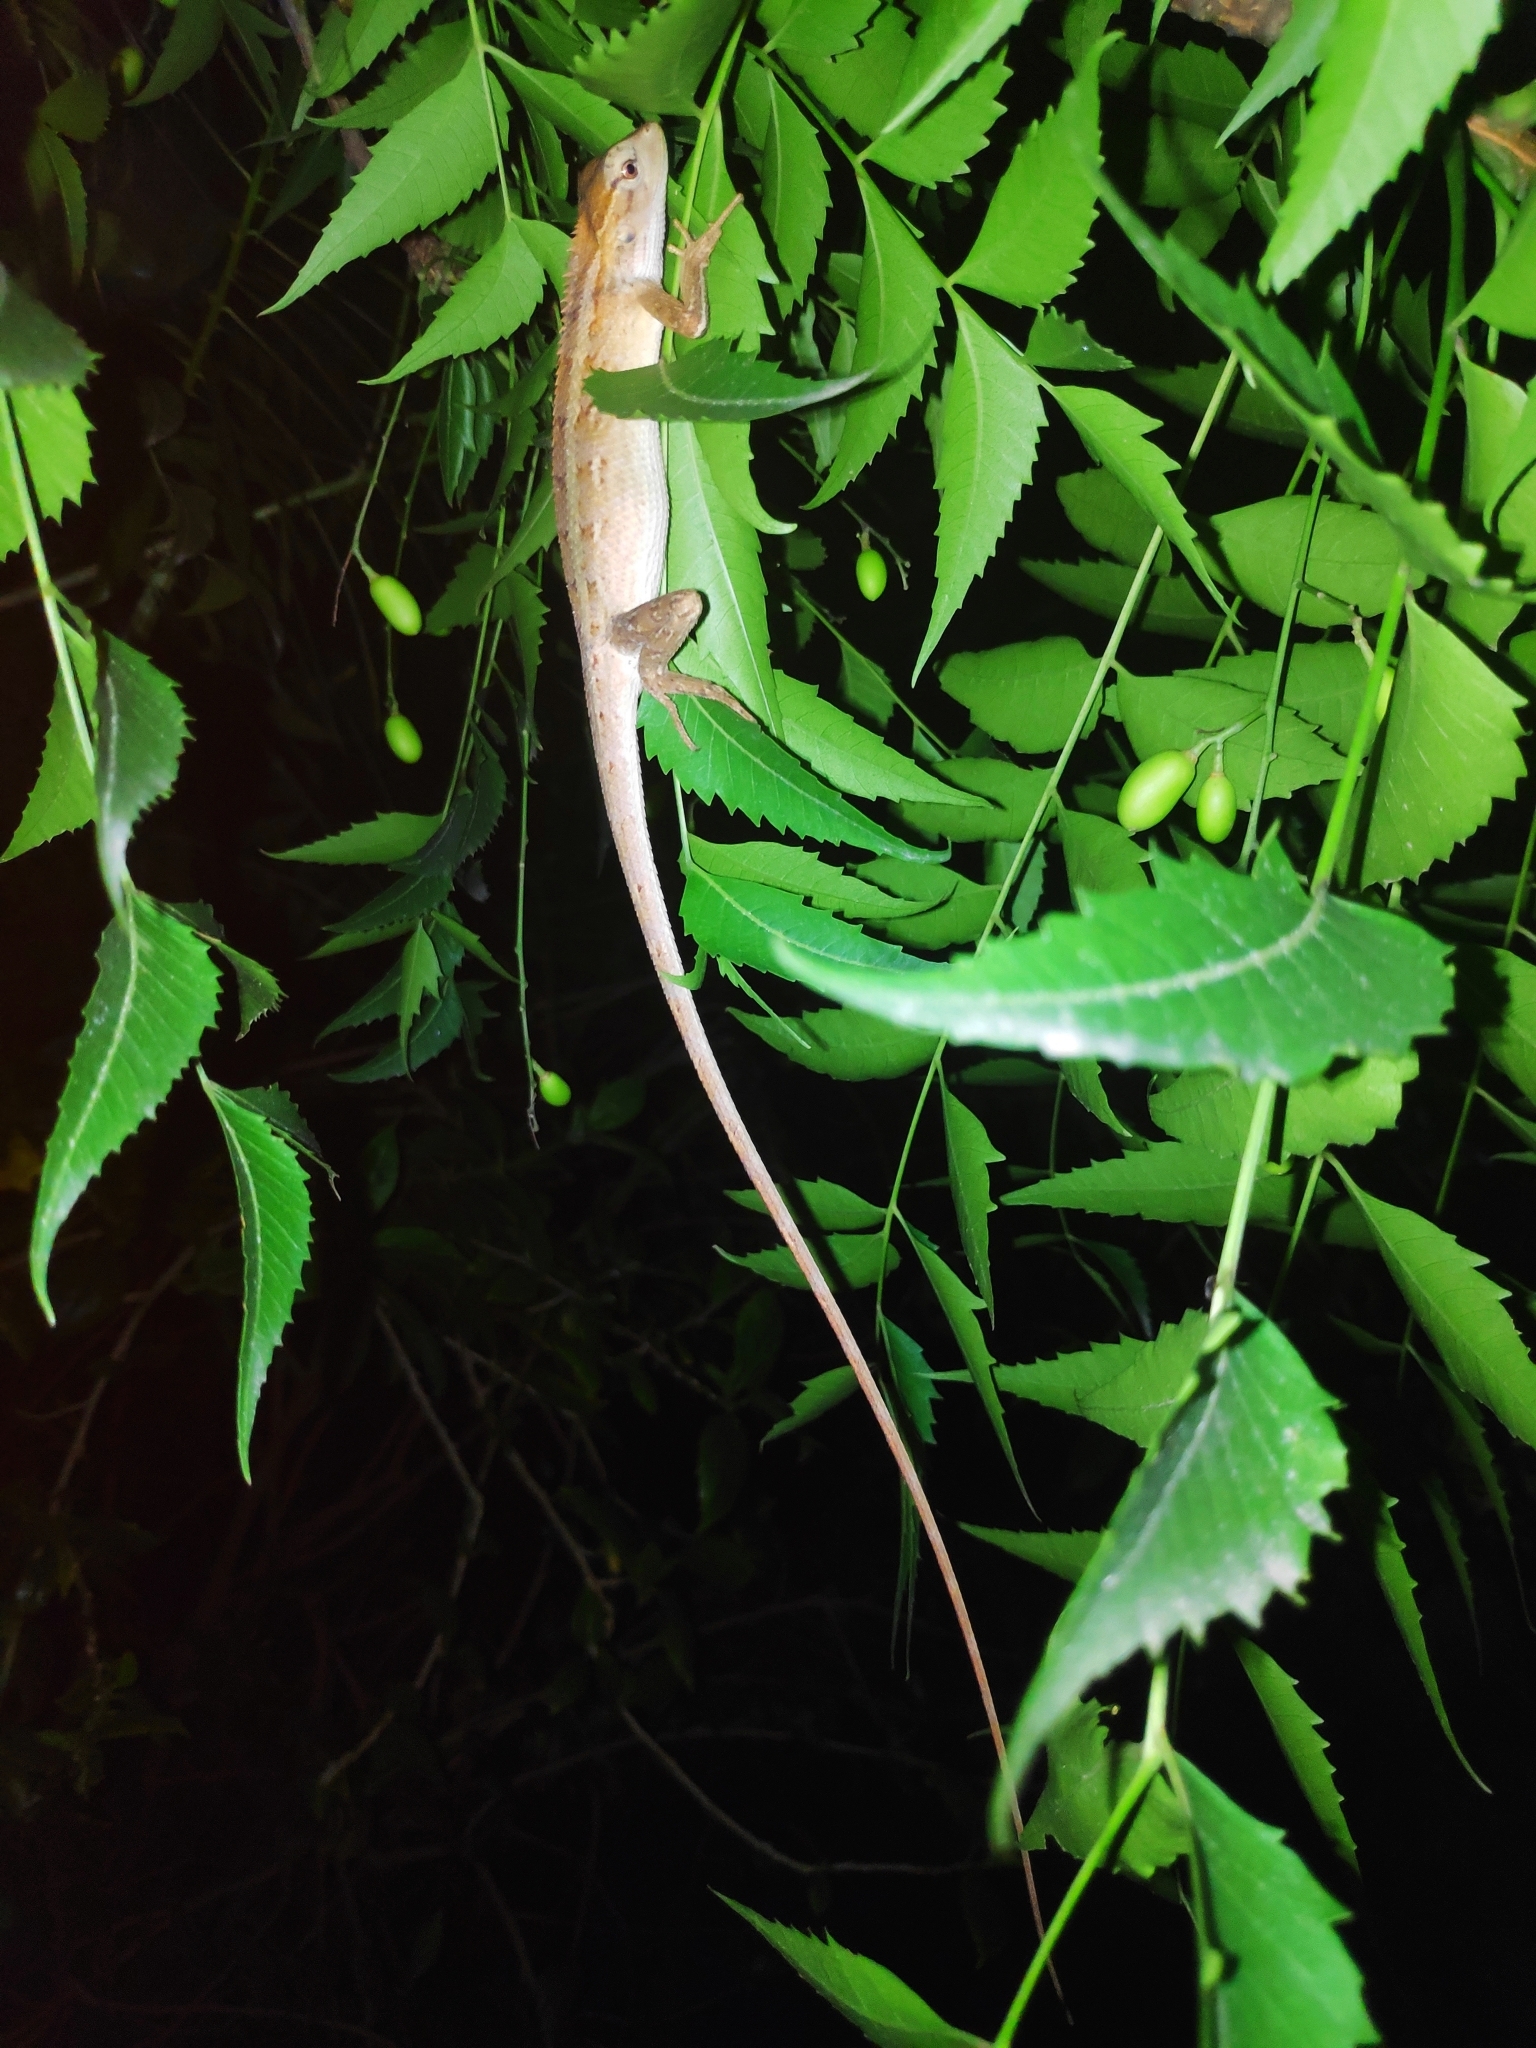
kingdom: Animalia
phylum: Chordata
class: Squamata
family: Agamidae
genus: Calotes
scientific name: Calotes versicolor
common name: Oriental garden lizard
